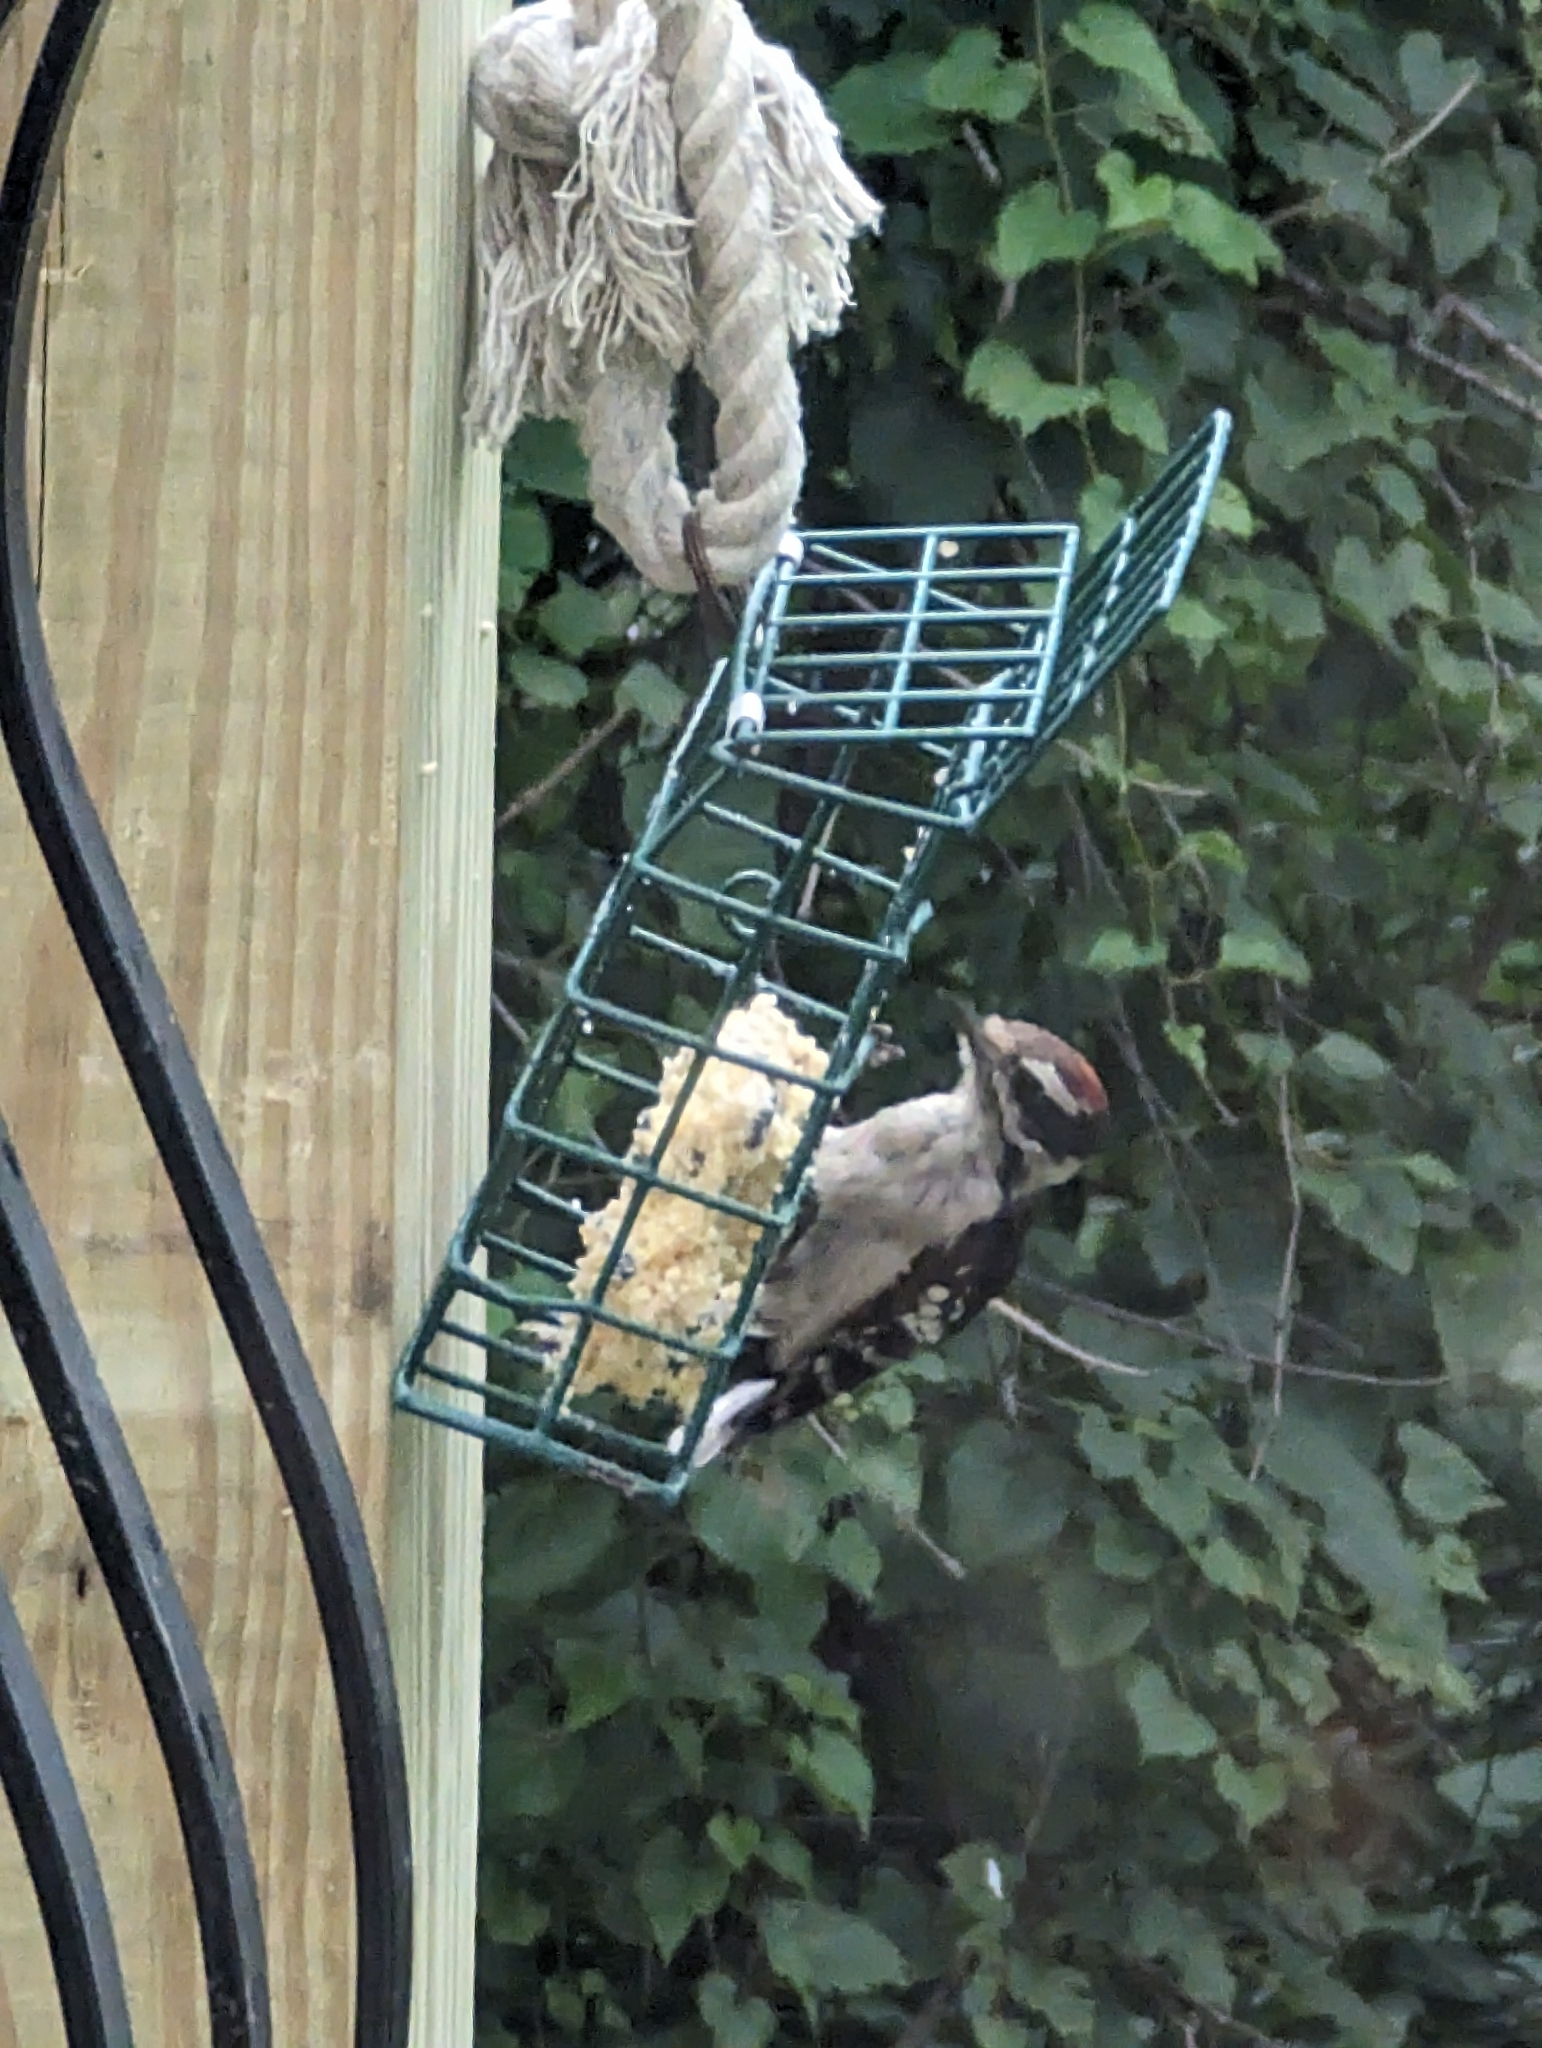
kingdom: Animalia
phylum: Chordata
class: Aves
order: Piciformes
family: Picidae
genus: Dryobates
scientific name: Dryobates pubescens
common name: Downy woodpecker
